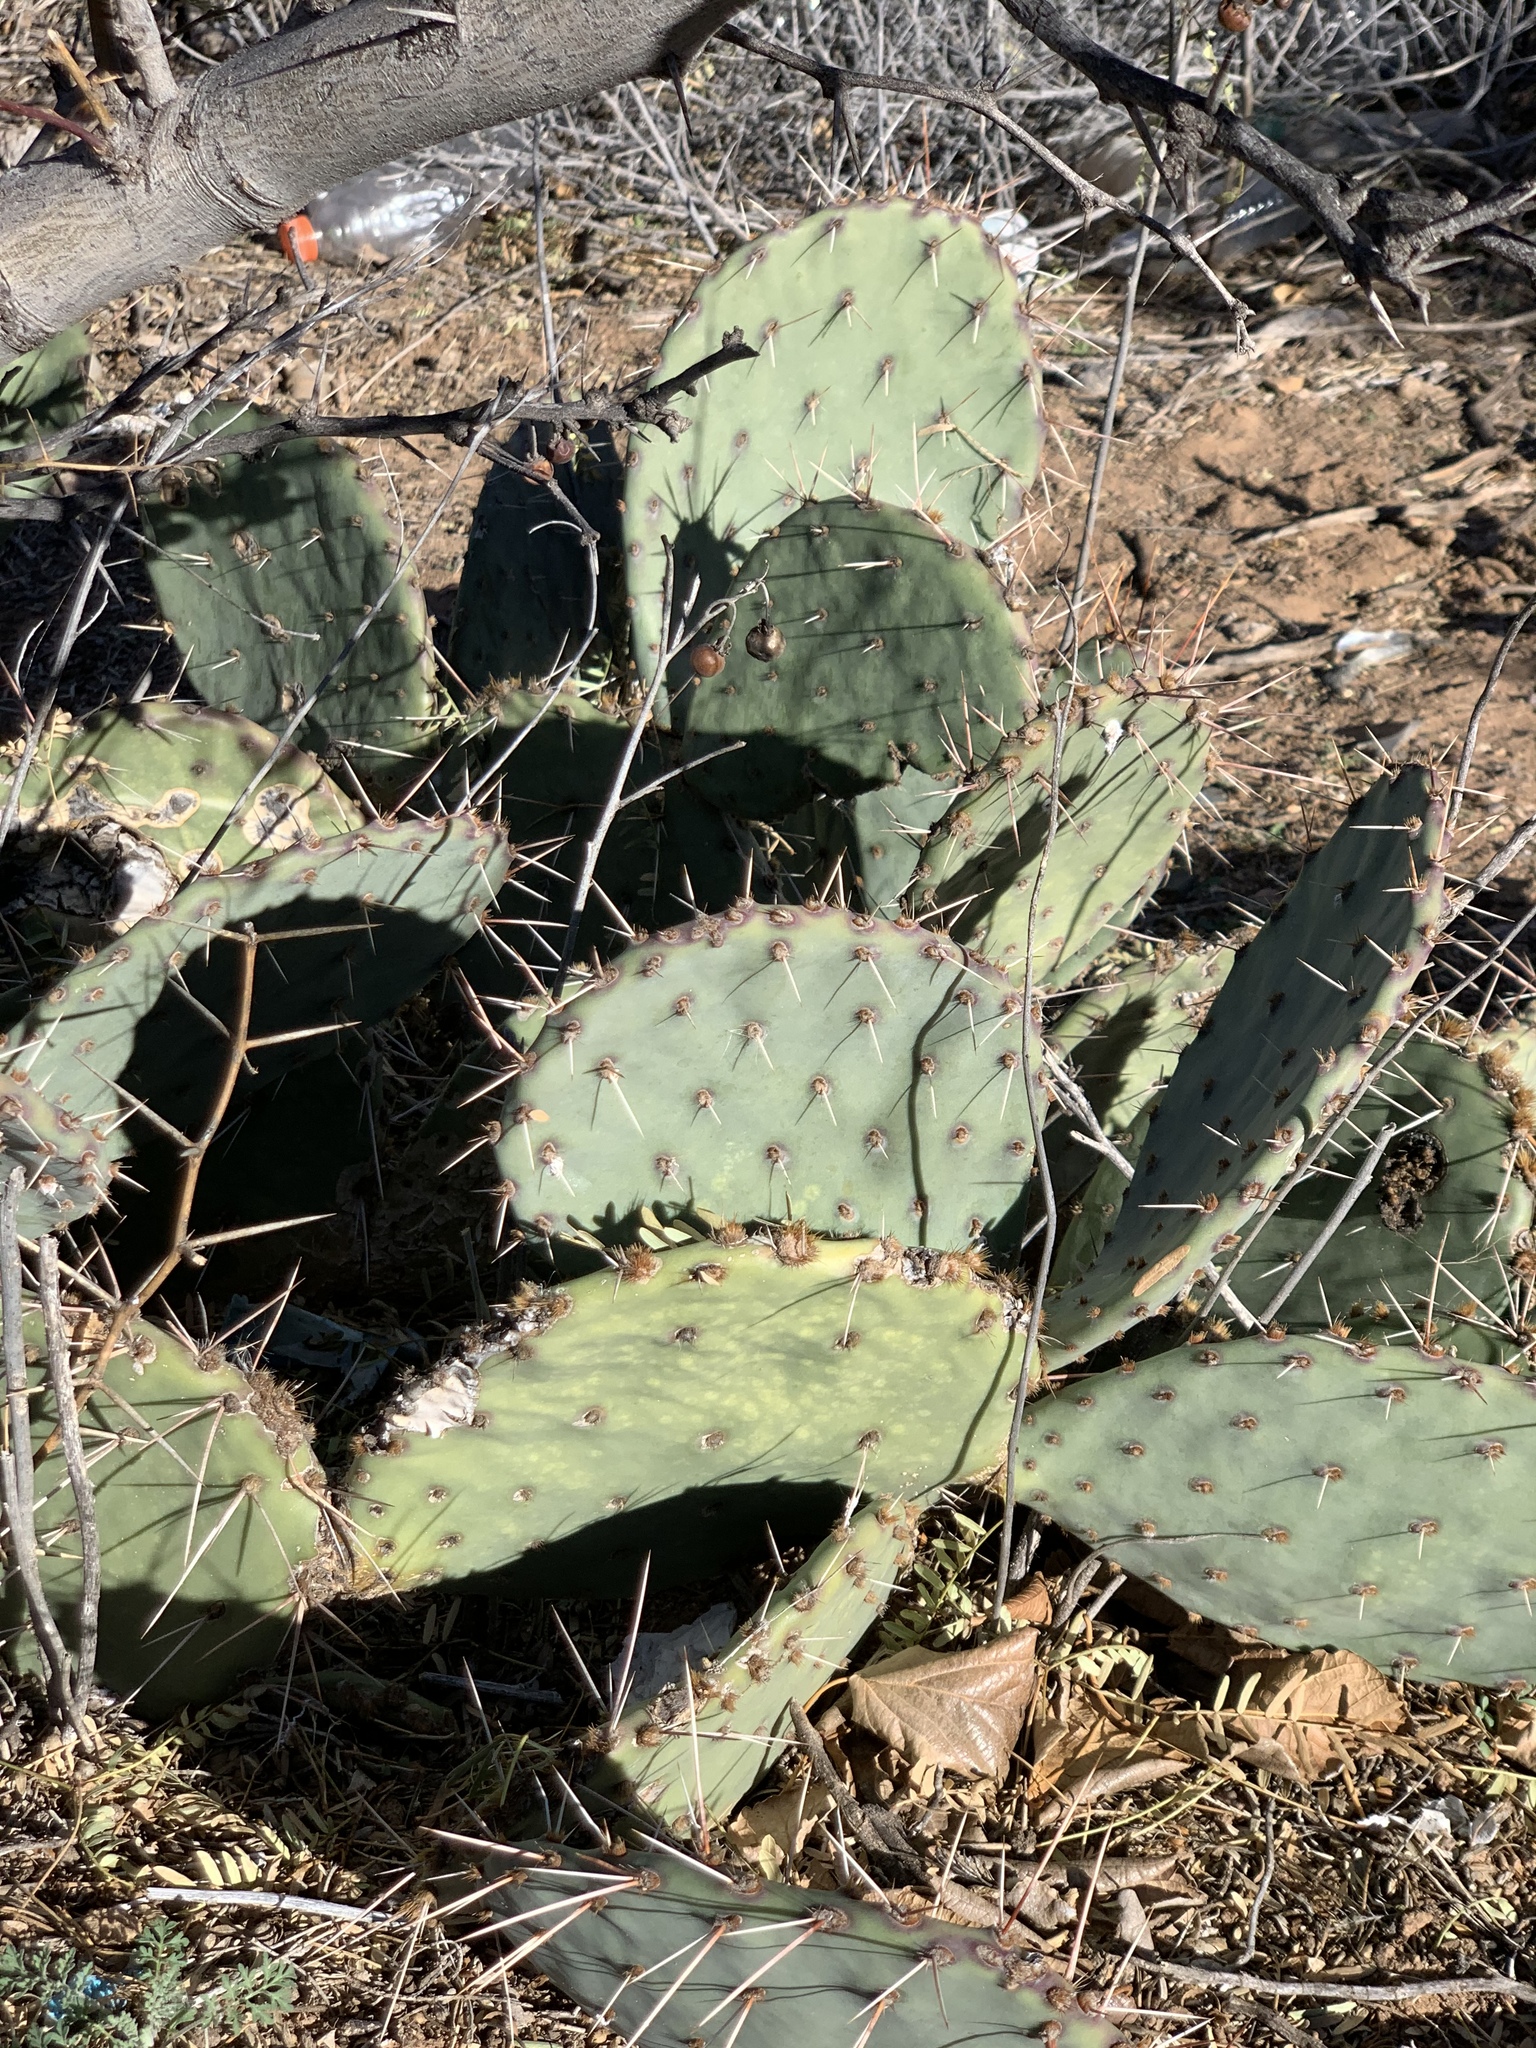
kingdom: Plantae
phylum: Tracheophyta
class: Magnoliopsida
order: Caryophyllales
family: Cactaceae
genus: Opuntia
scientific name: Opuntia phaeacantha
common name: New mexico prickly-pear
